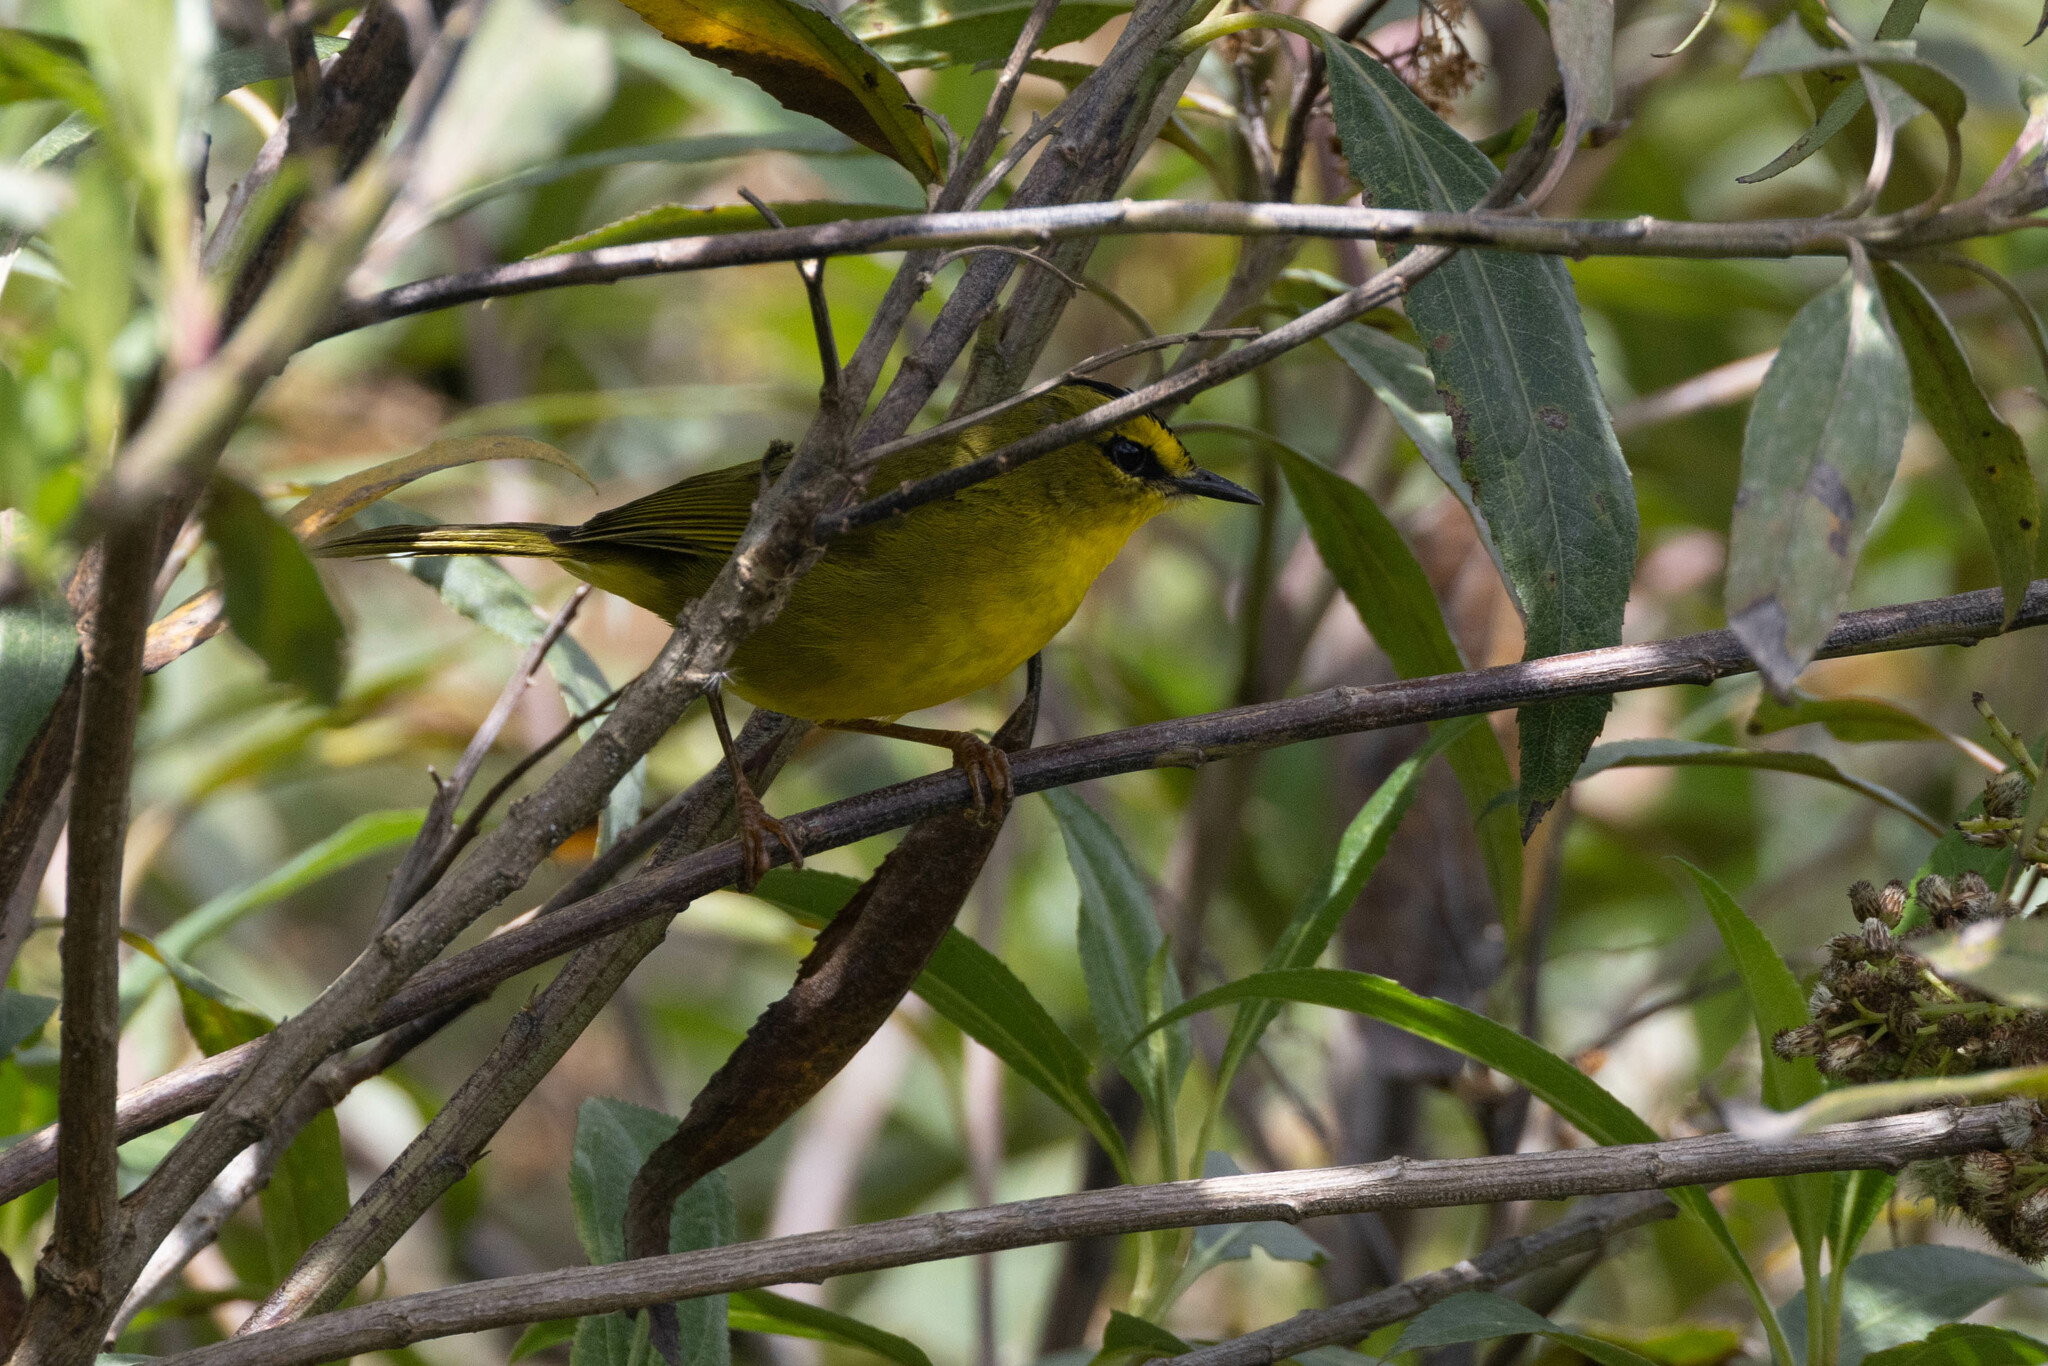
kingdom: Animalia
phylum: Chordata
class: Aves
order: Passeriformes
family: Parulidae
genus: Myiothlypis
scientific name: Myiothlypis nigrocristata
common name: Black-crested warbler
